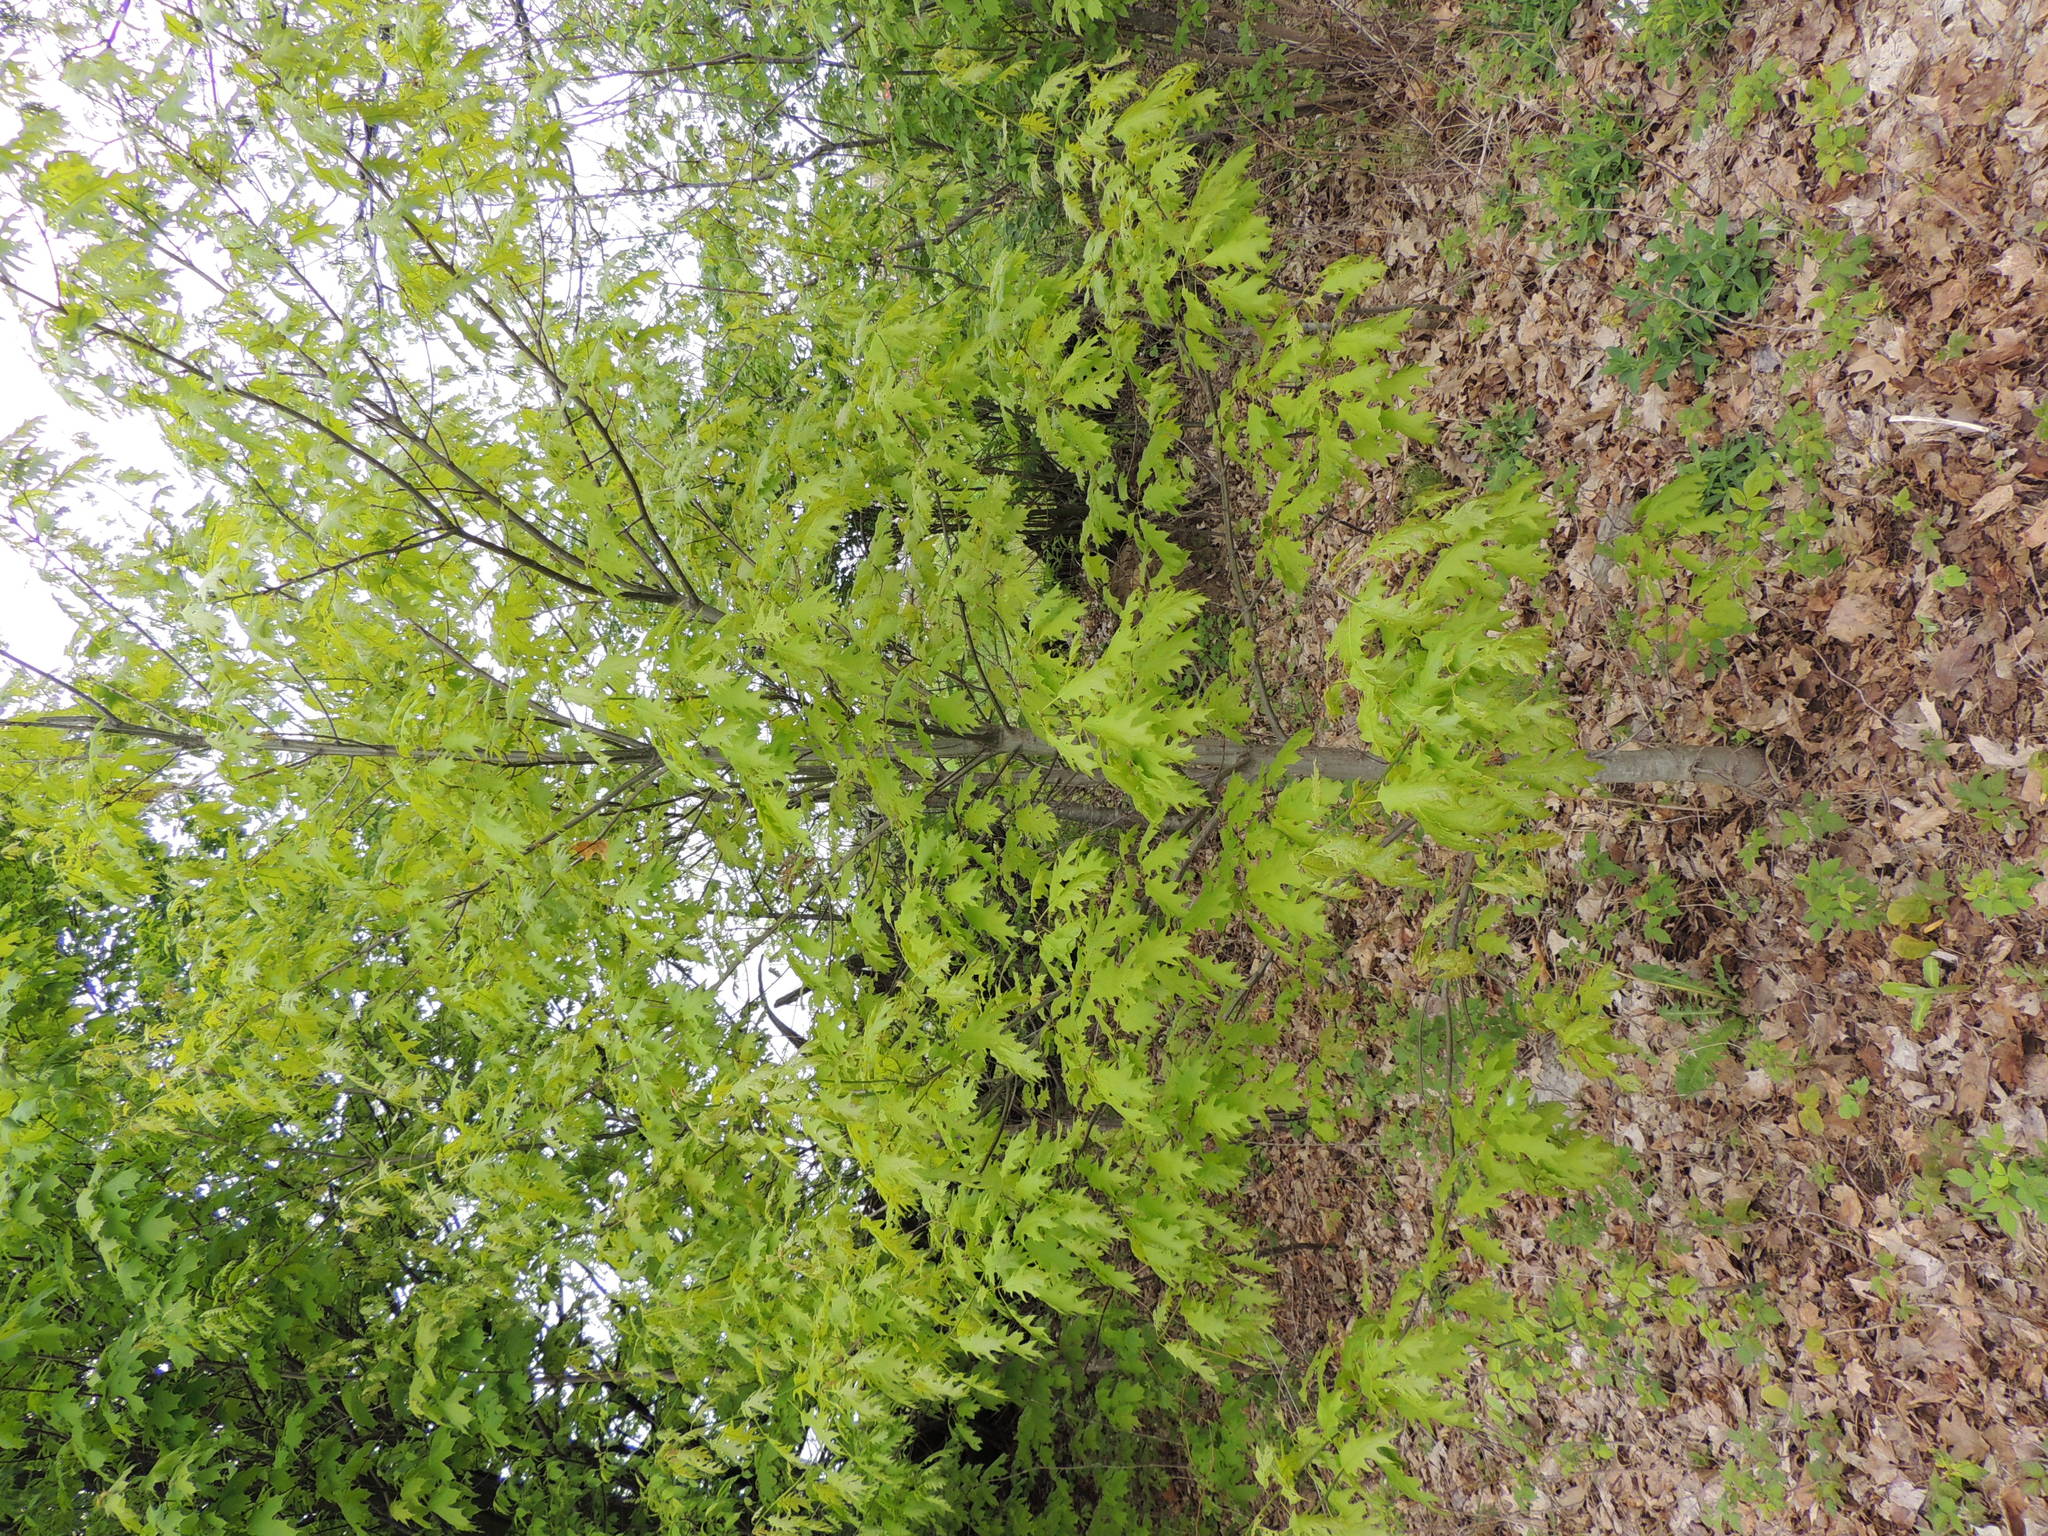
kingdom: Plantae
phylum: Tracheophyta
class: Magnoliopsida
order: Fagales
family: Fagaceae
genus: Quercus
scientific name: Quercus rubra
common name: Red oak
